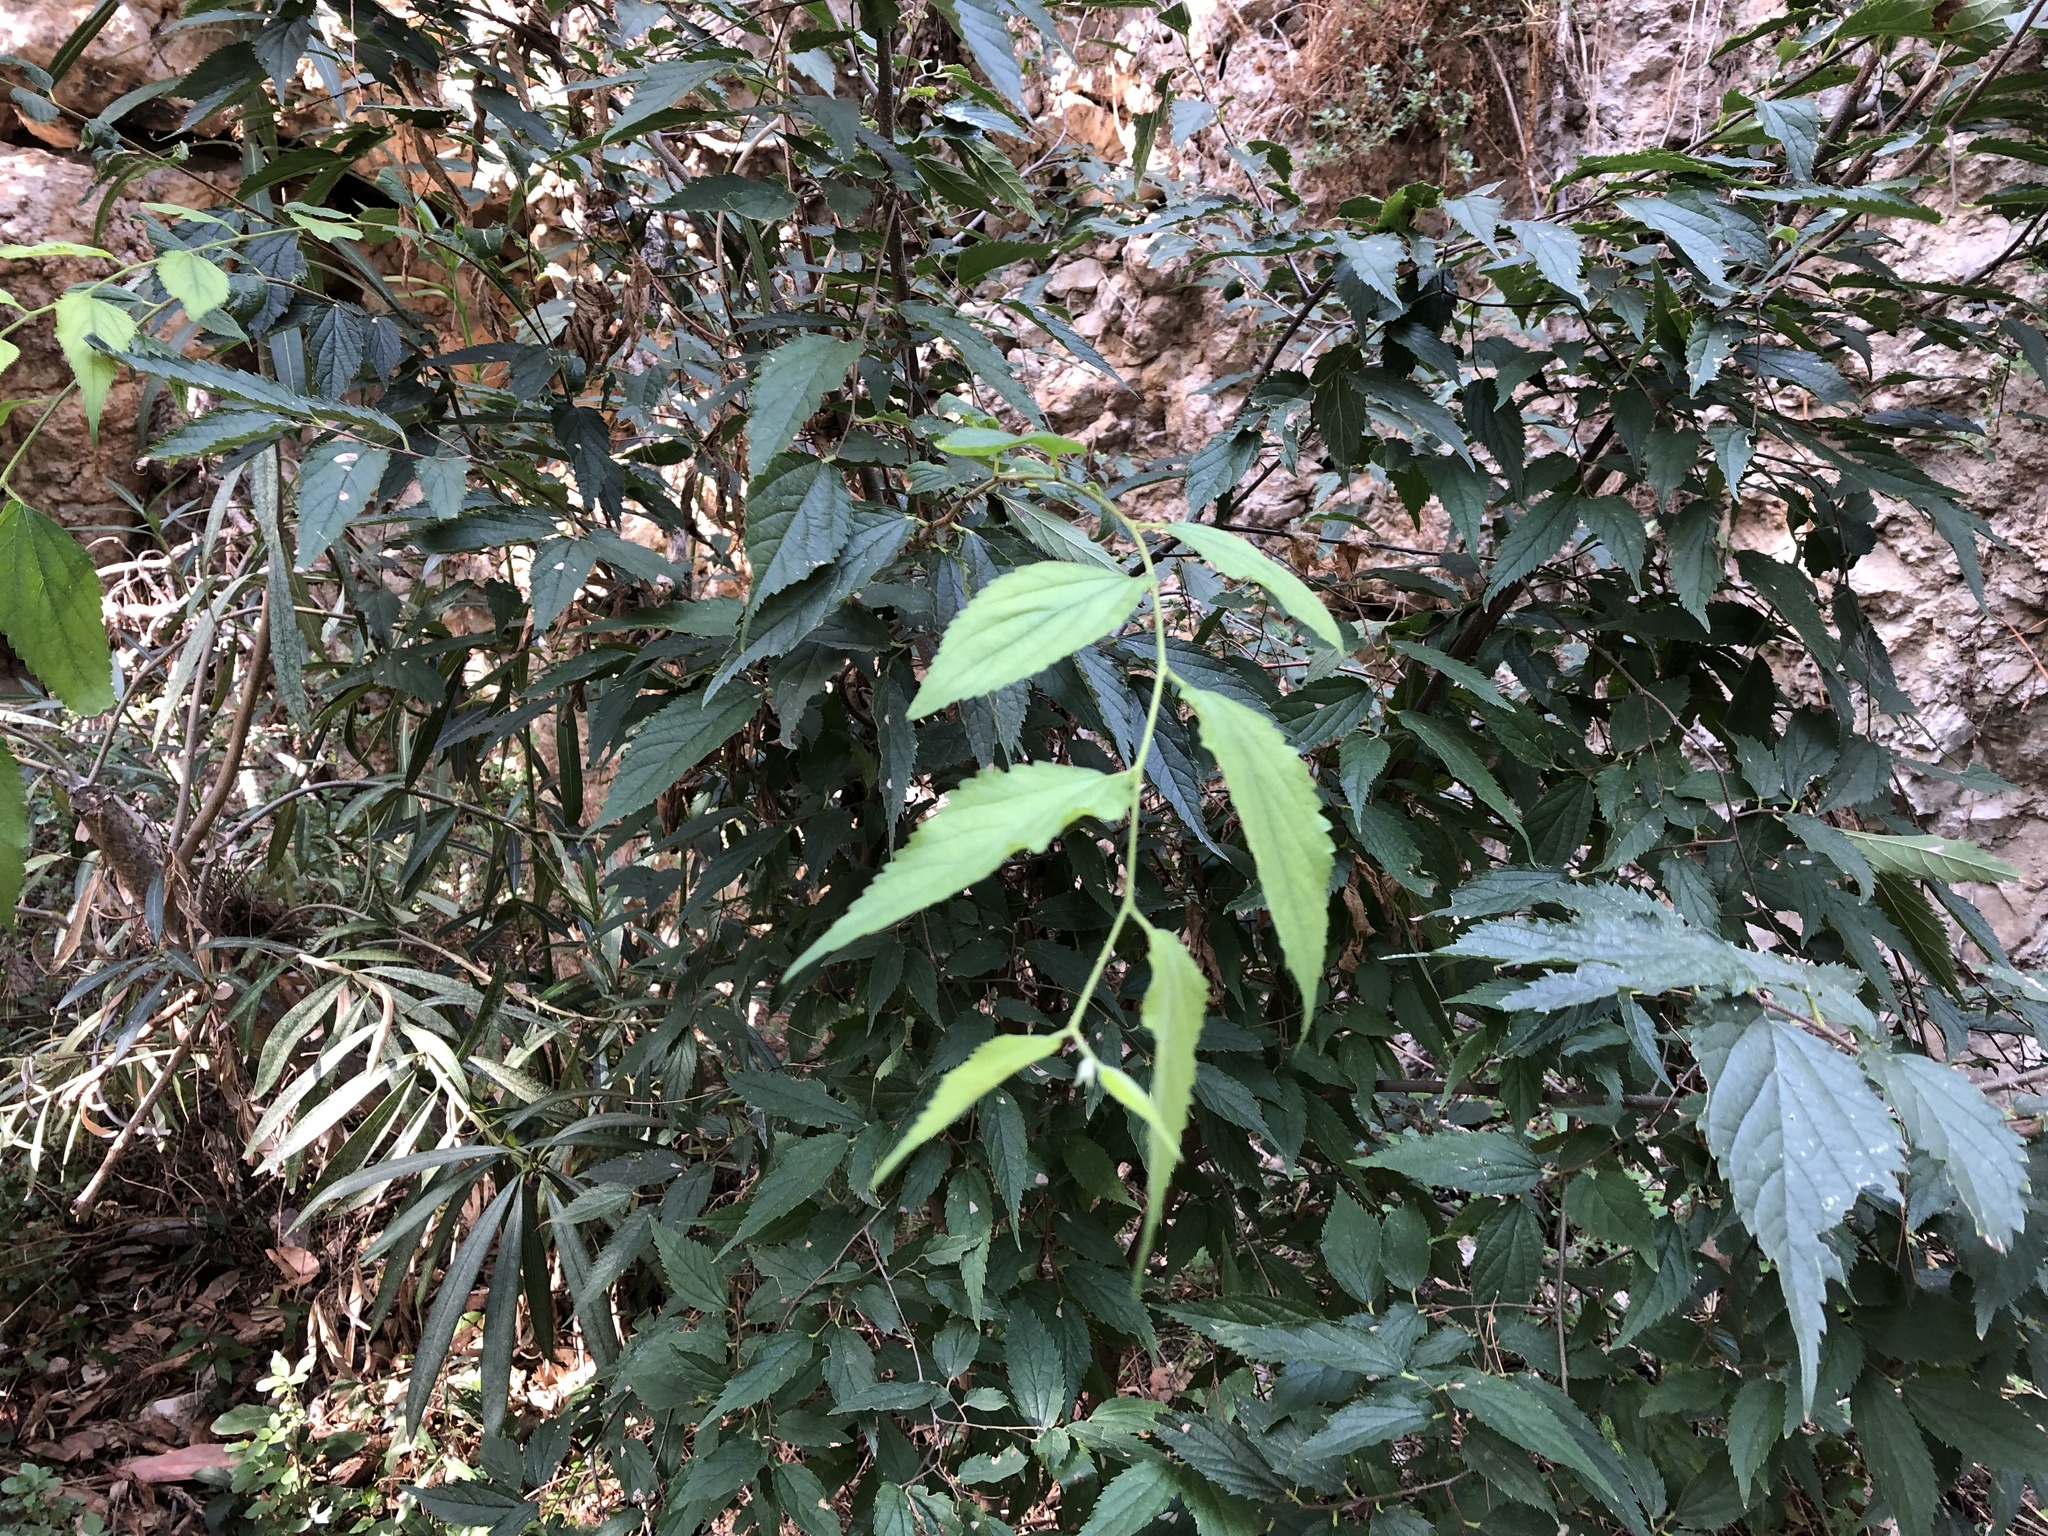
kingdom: Plantae
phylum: Tracheophyta
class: Magnoliopsida
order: Rosales
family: Cannabaceae
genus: Celtis
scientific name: Celtis australis
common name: European hackberry
